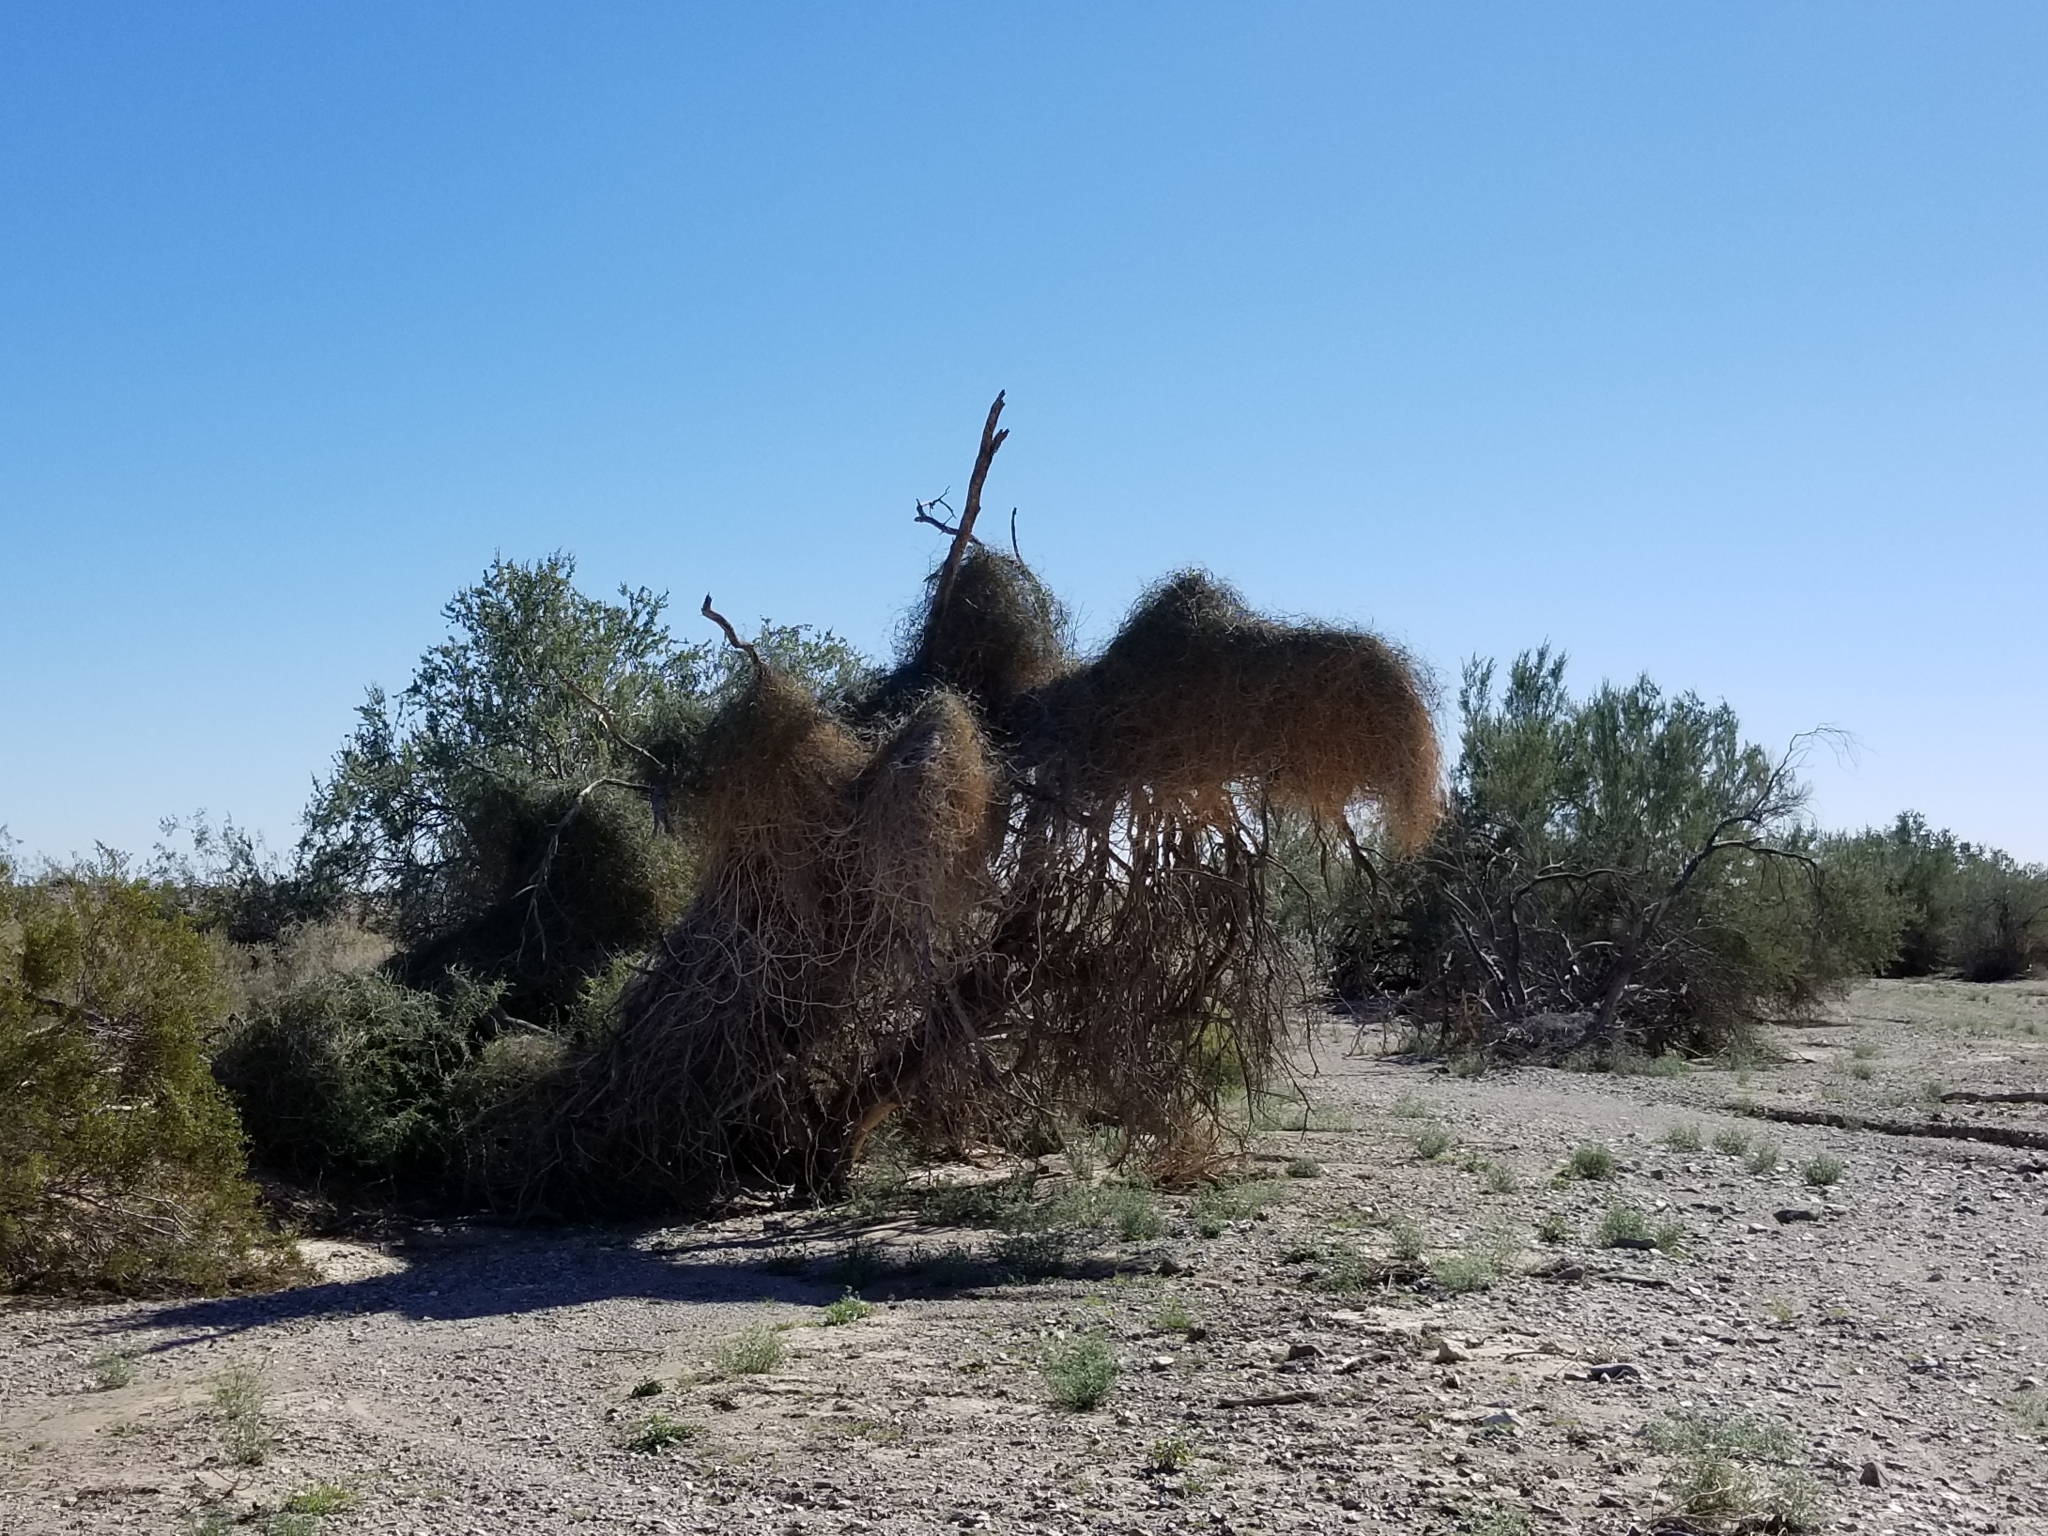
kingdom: Plantae
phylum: Tracheophyta
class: Magnoliopsida
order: Gentianales
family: Apocynaceae
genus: Funastrum
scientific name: Funastrum heterophyllum
